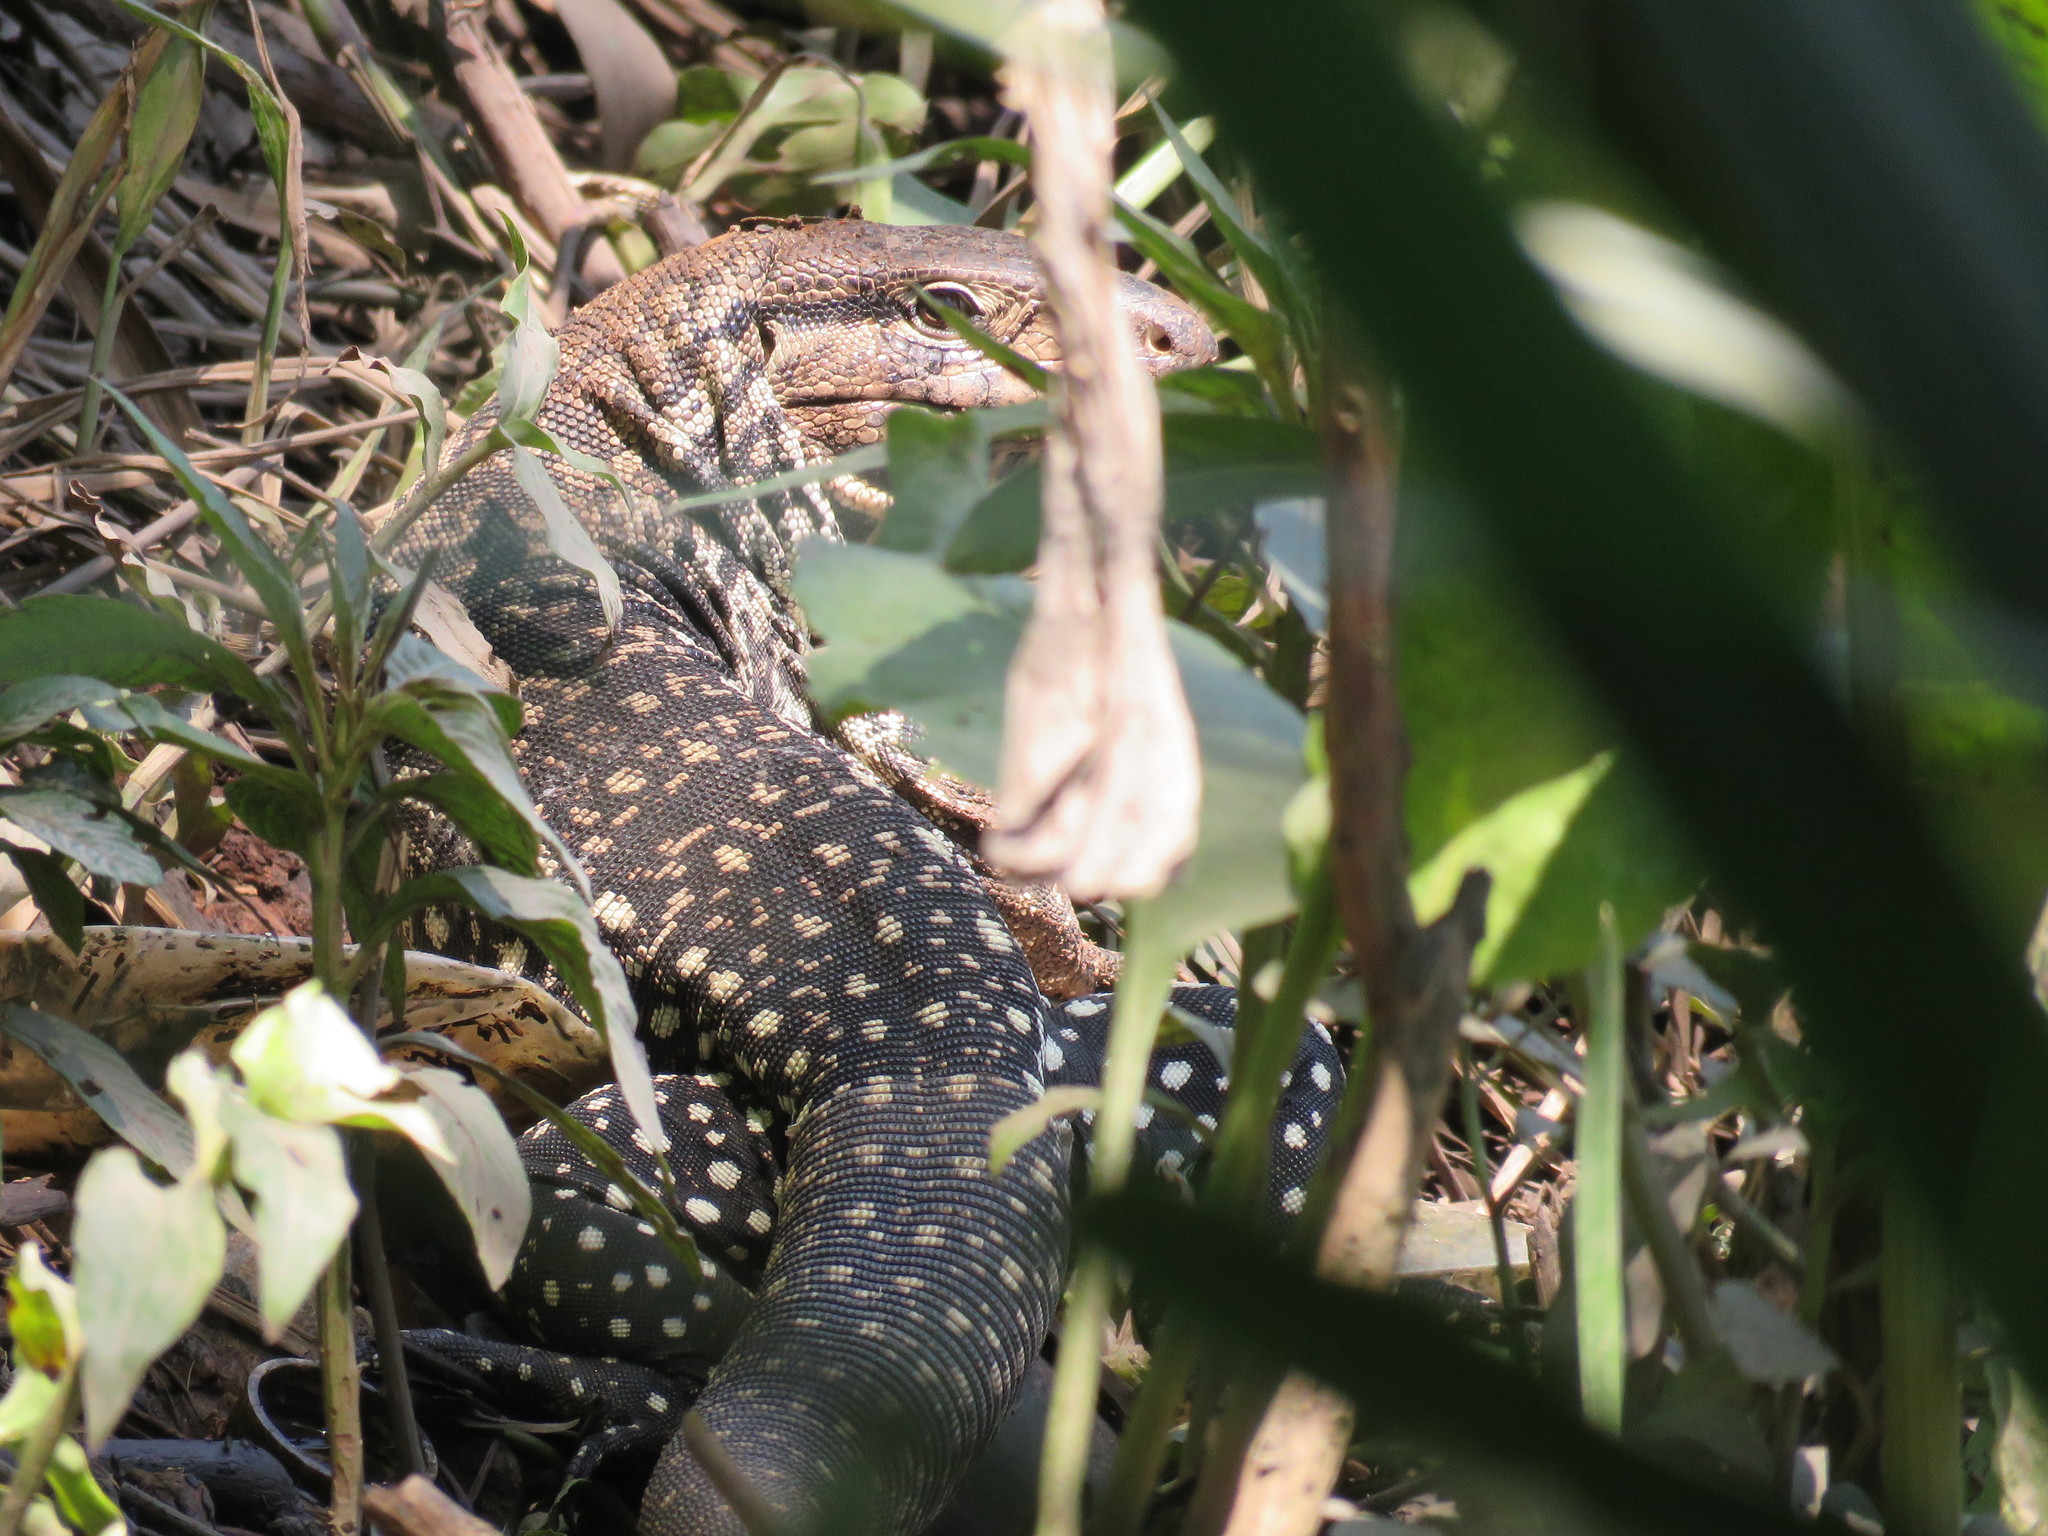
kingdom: Animalia
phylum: Chordata
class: Squamata
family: Teiidae
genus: Salvator
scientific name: Salvator merianae
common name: Argentine black and white tegu
